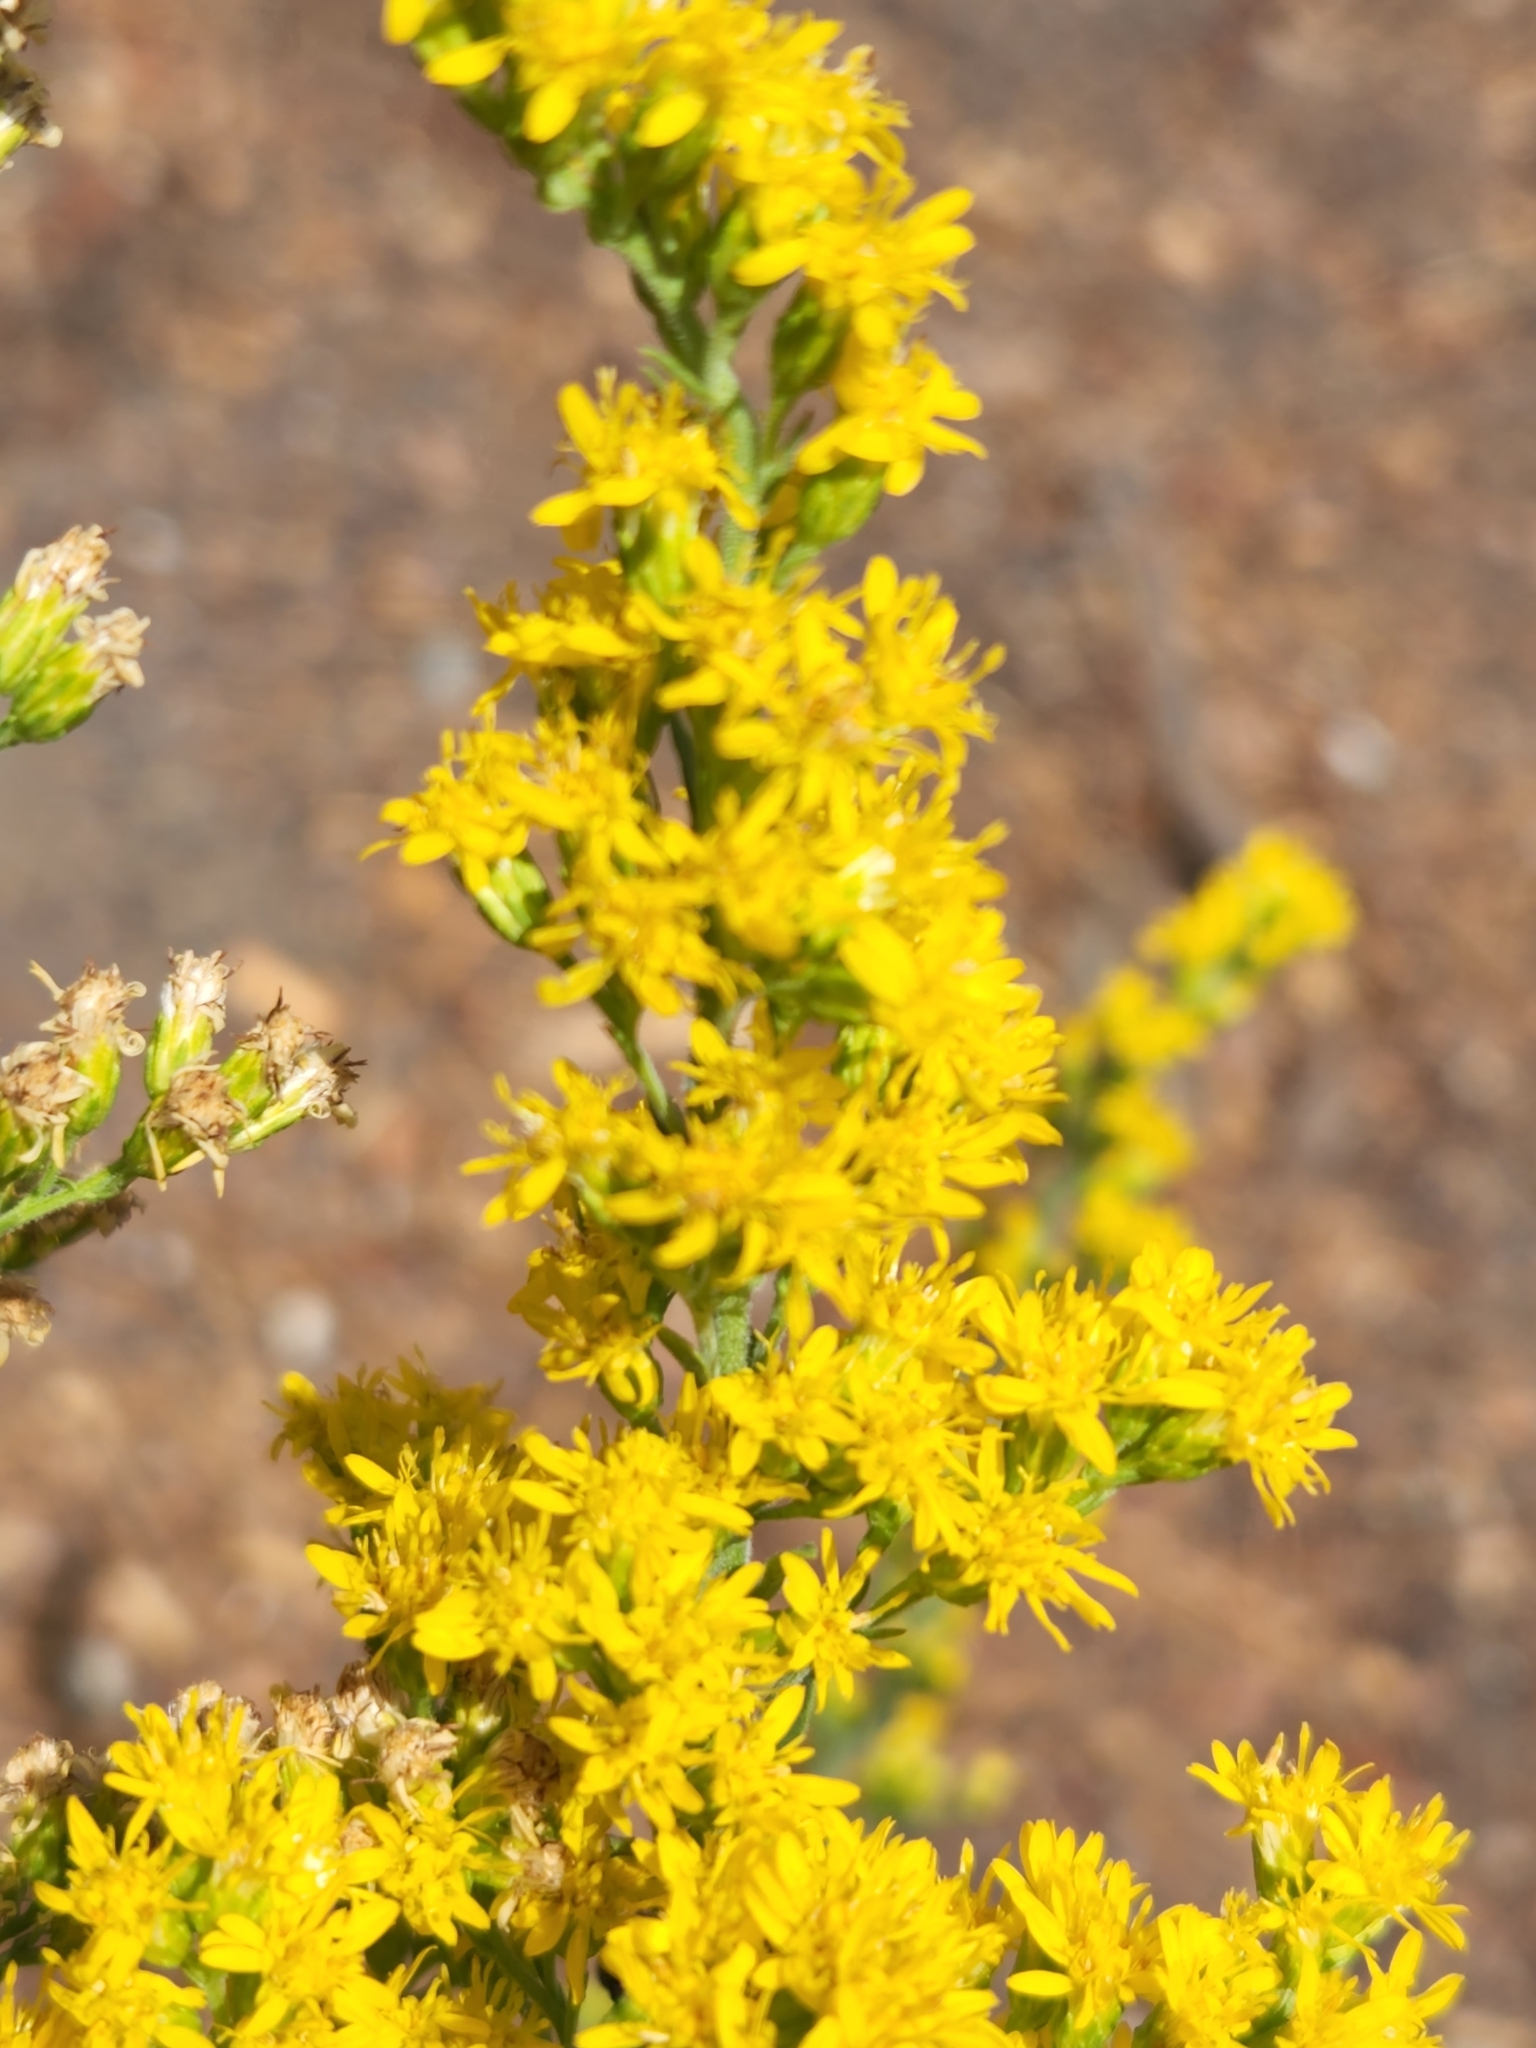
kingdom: Plantae
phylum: Tracheophyta
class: Magnoliopsida
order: Asterales
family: Asteraceae
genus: Solidago
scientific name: Solidago velutina
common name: Three-nerve goldenrod
